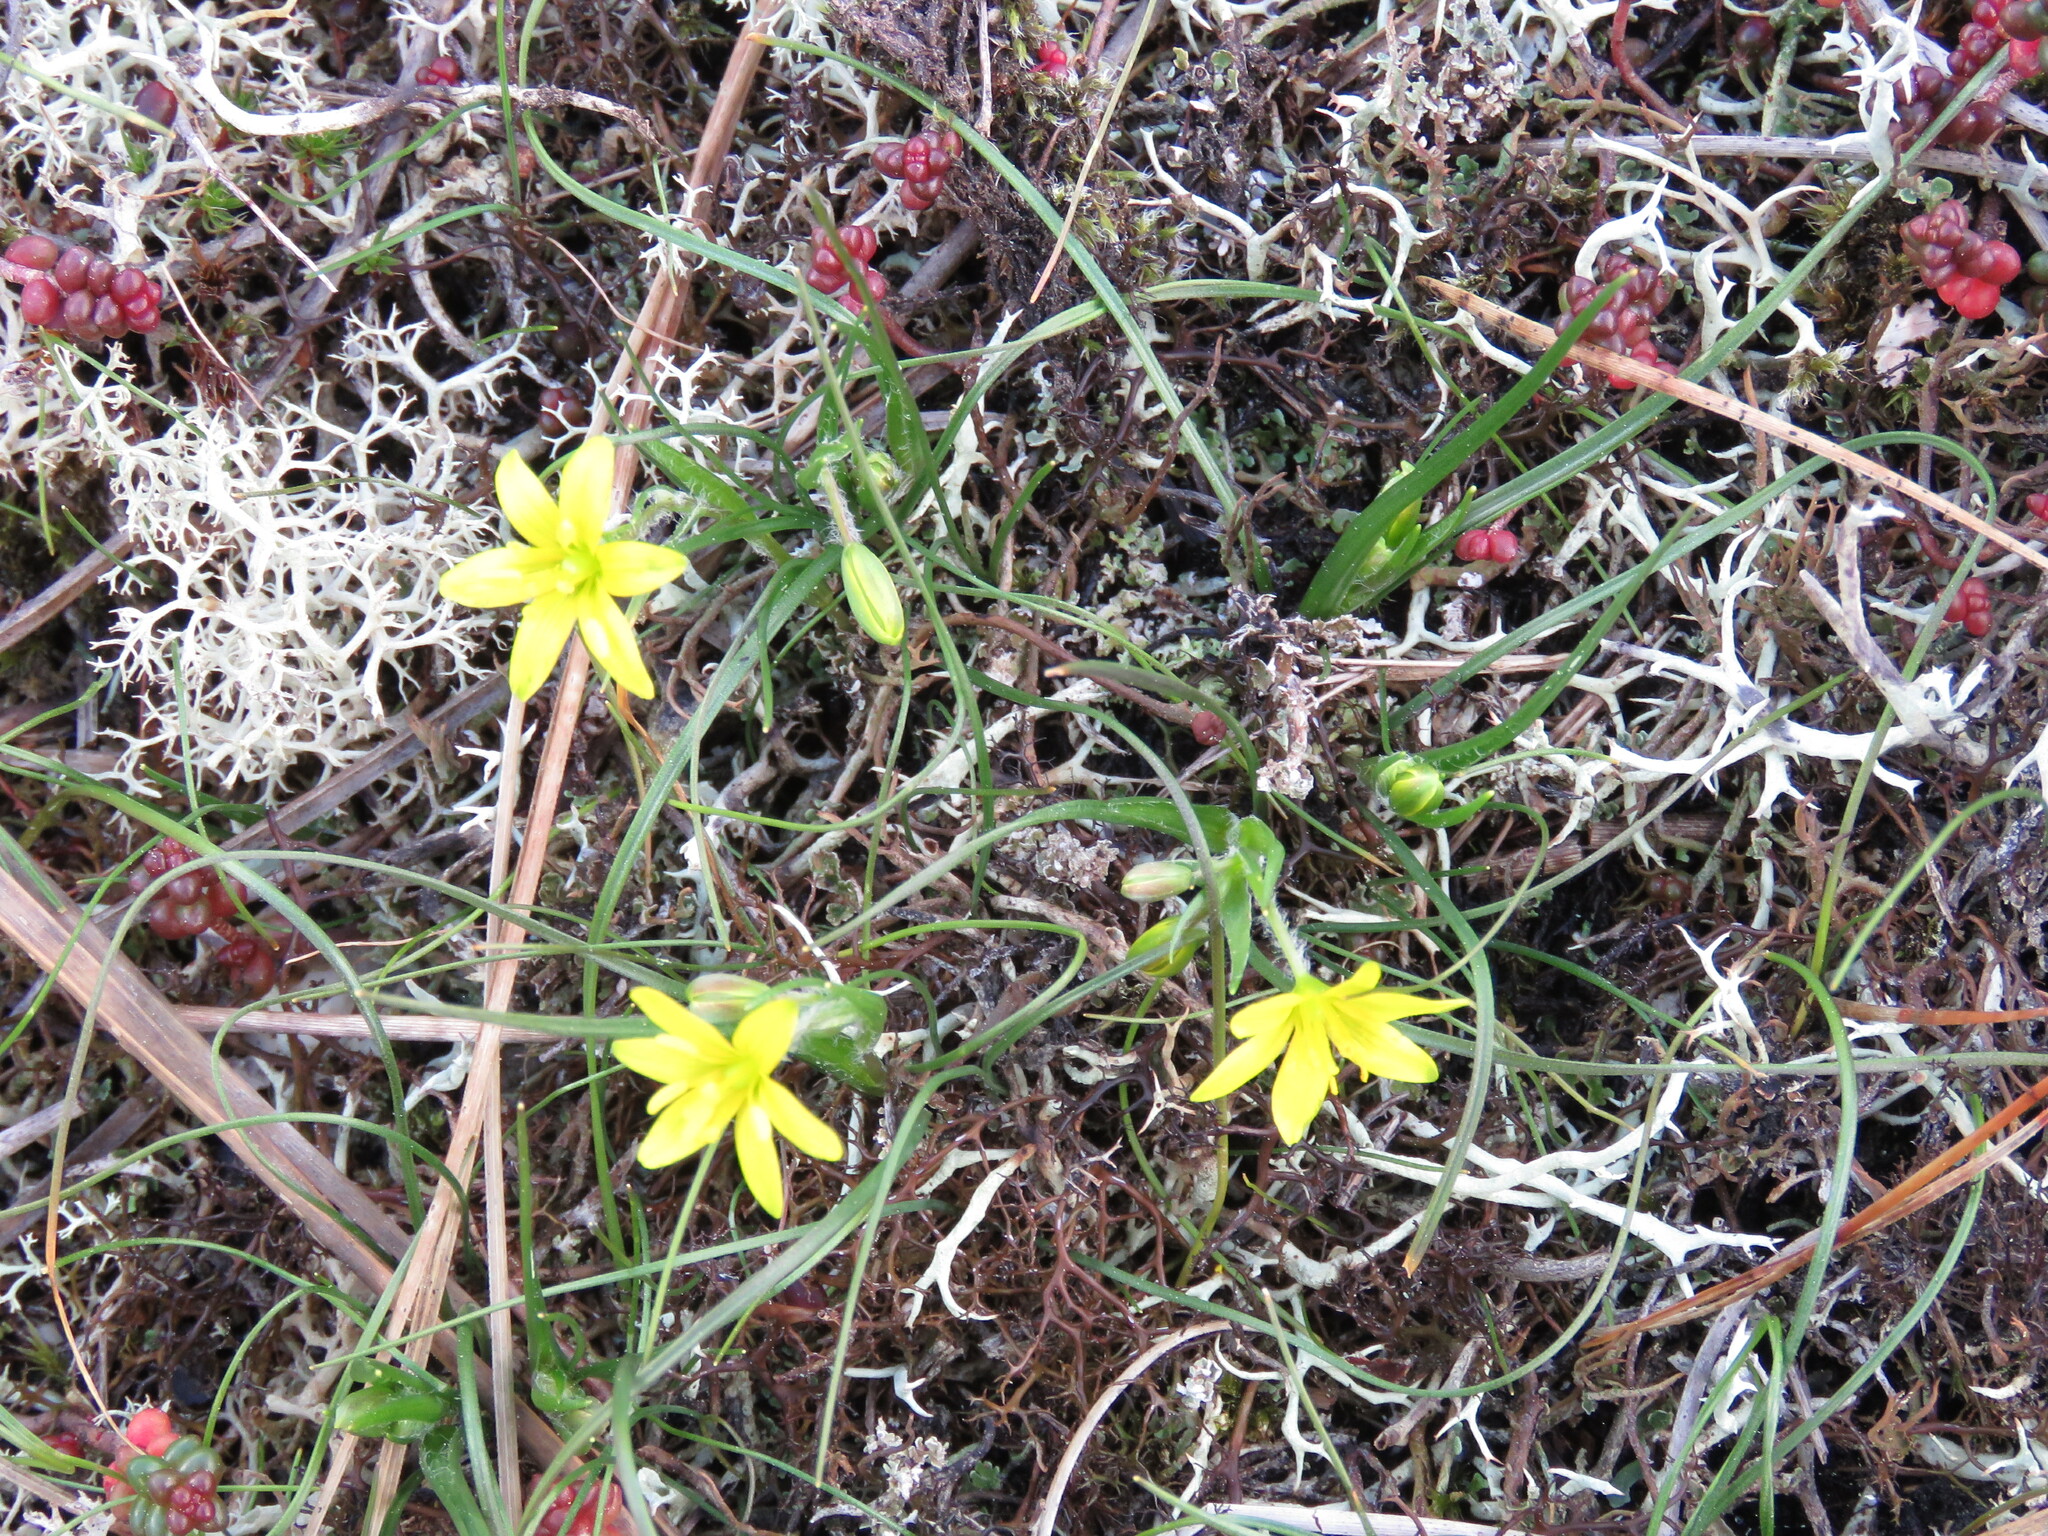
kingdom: Plantae
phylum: Tracheophyta
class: Liliopsida
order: Liliales
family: Liliaceae
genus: Gagea
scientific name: Gagea bohemica
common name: Early star-of-bethlehem
